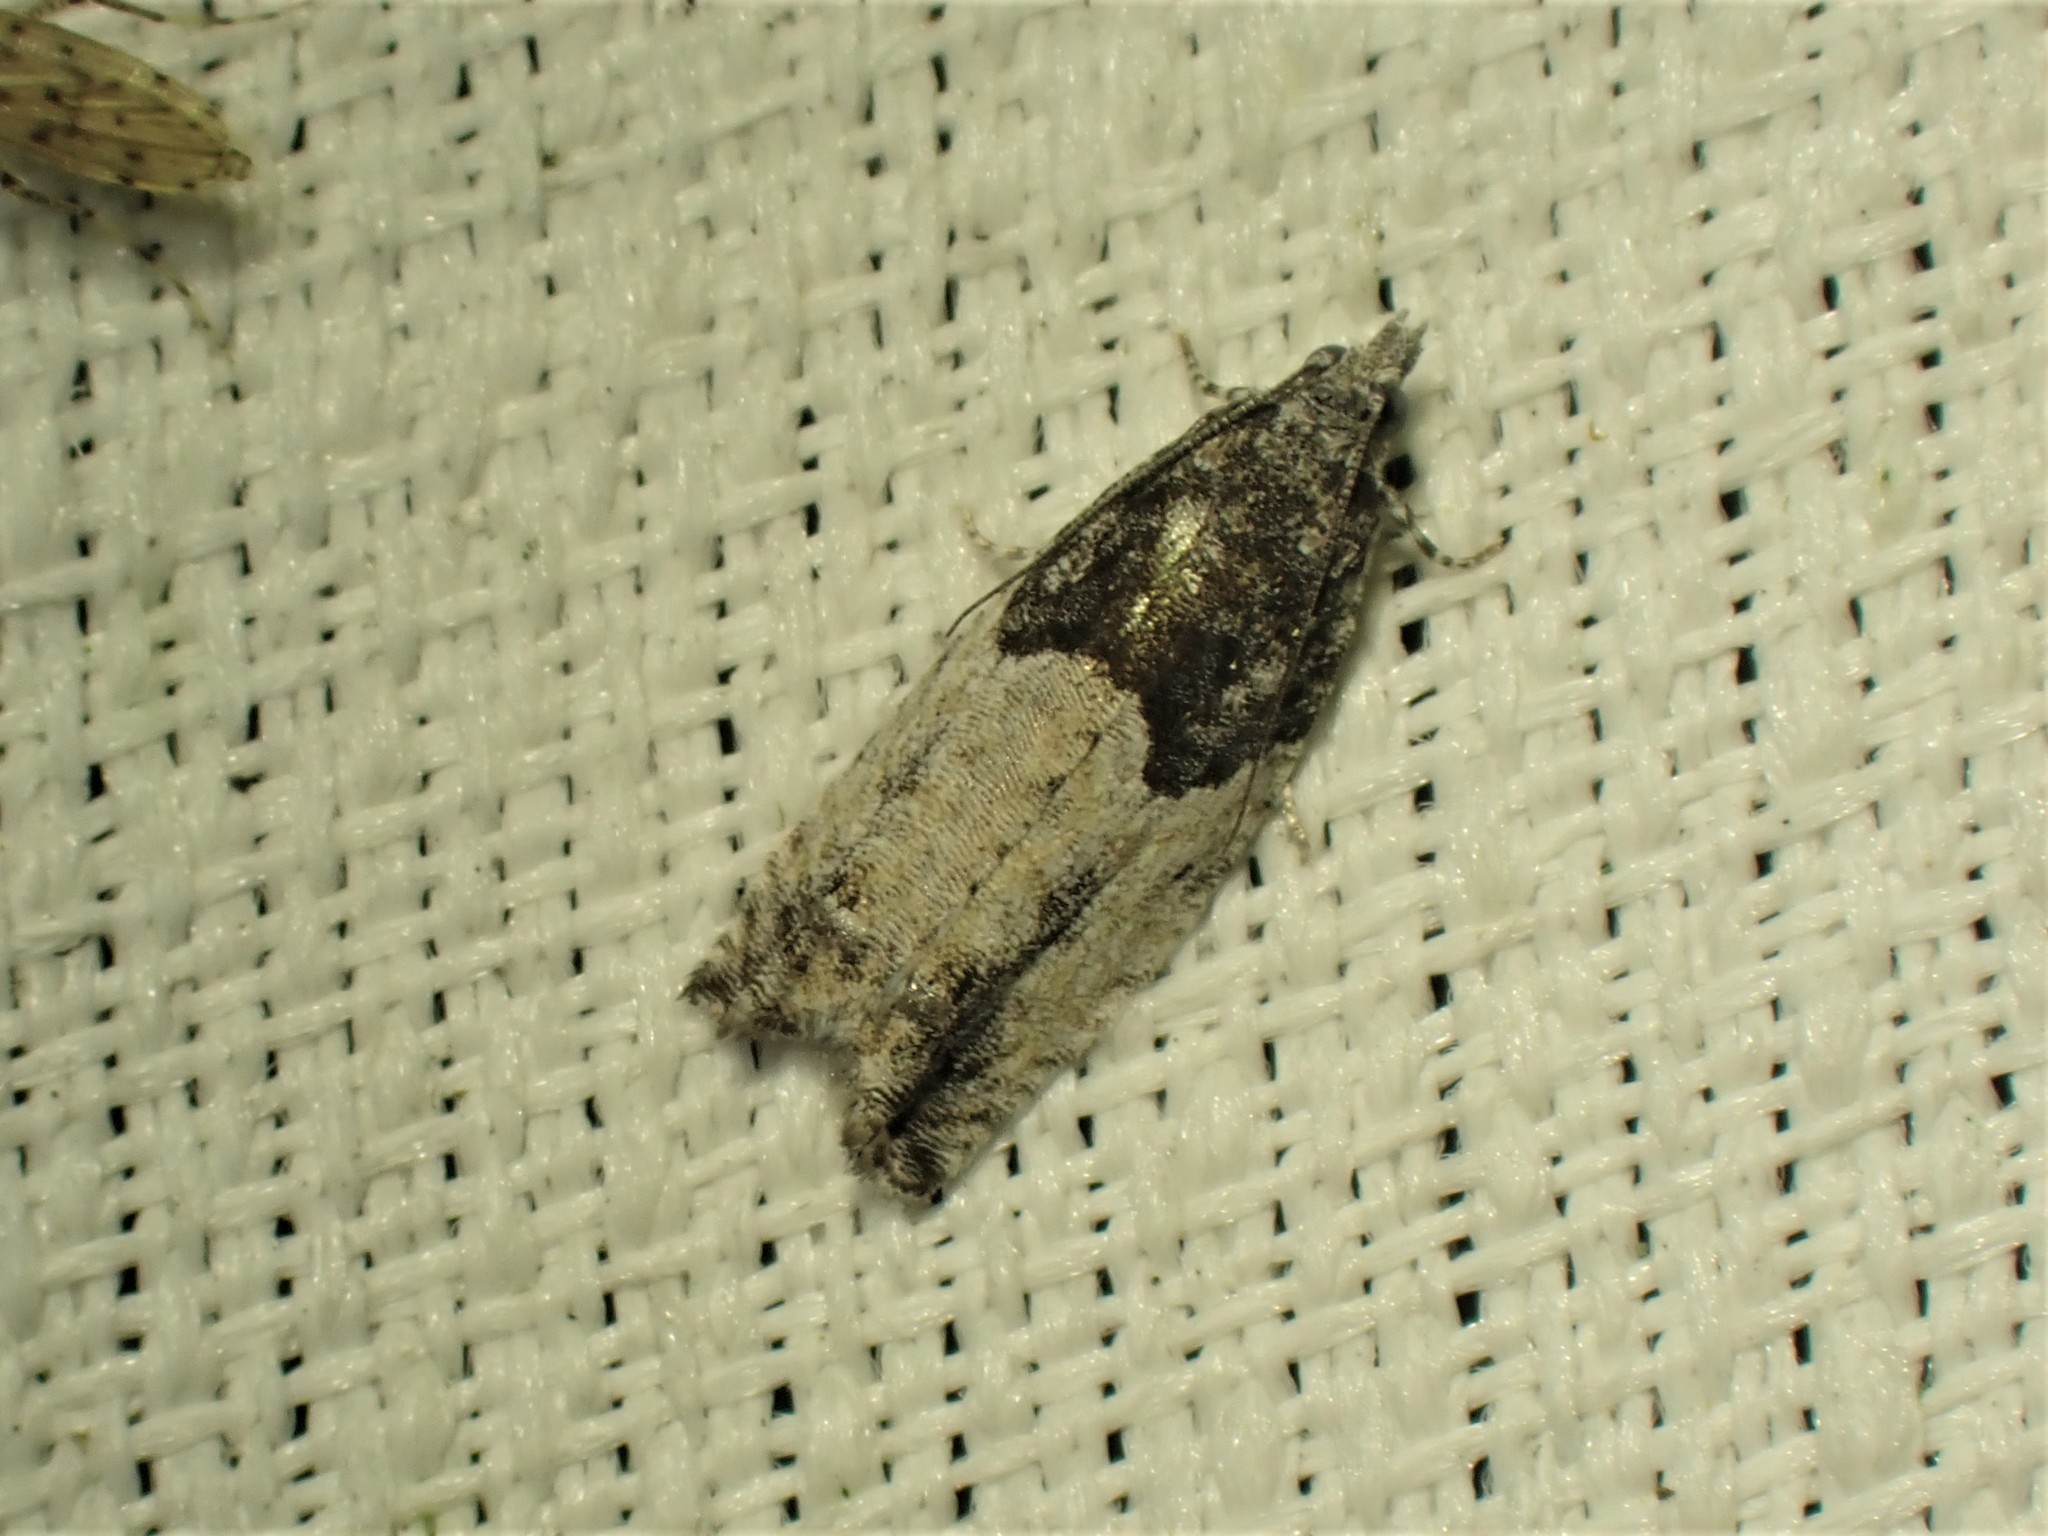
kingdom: Animalia
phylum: Arthropoda
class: Insecta
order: Lepidoptera
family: Tortricidae
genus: Epinotia
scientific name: Epinotia nisella
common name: Grey poplar bell
